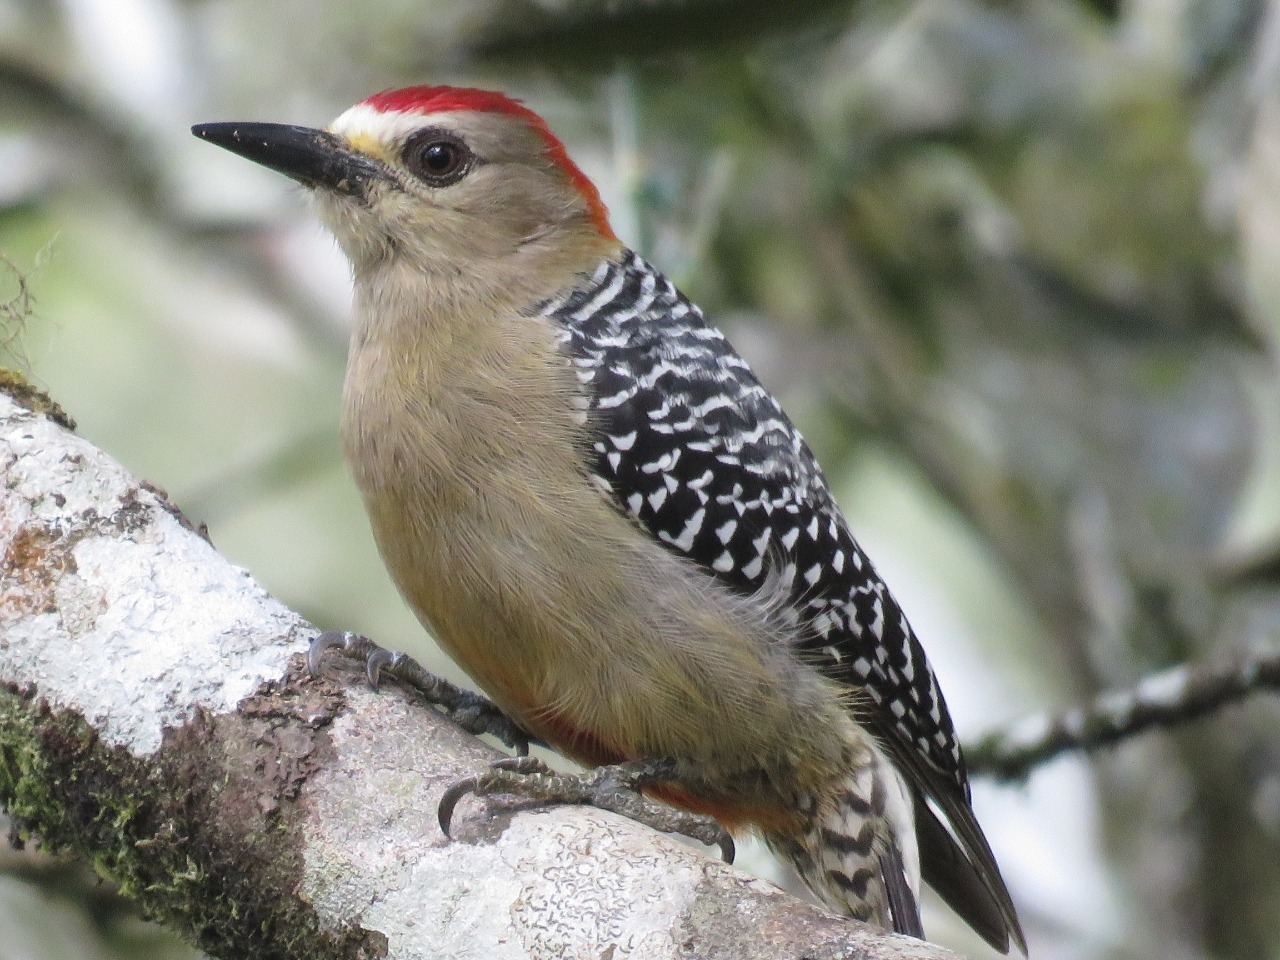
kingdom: Animalia
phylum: Chordata
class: Aves
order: Piciformes
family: Picidae
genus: Melanerpes
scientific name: Melanerpes rubricapillus
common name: Red-crowned woodpecker
